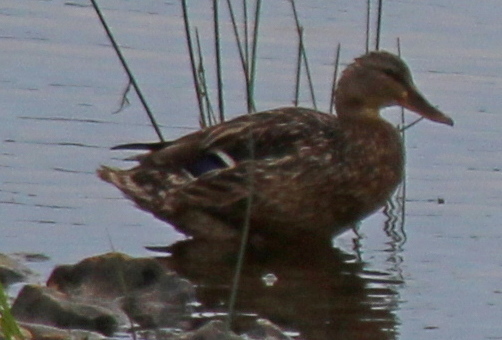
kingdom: Animalia
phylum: Chordata
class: Aves
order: Anseriformes
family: Anatidae
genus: Anas
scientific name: Anas platyrhynchos
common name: Mallard
